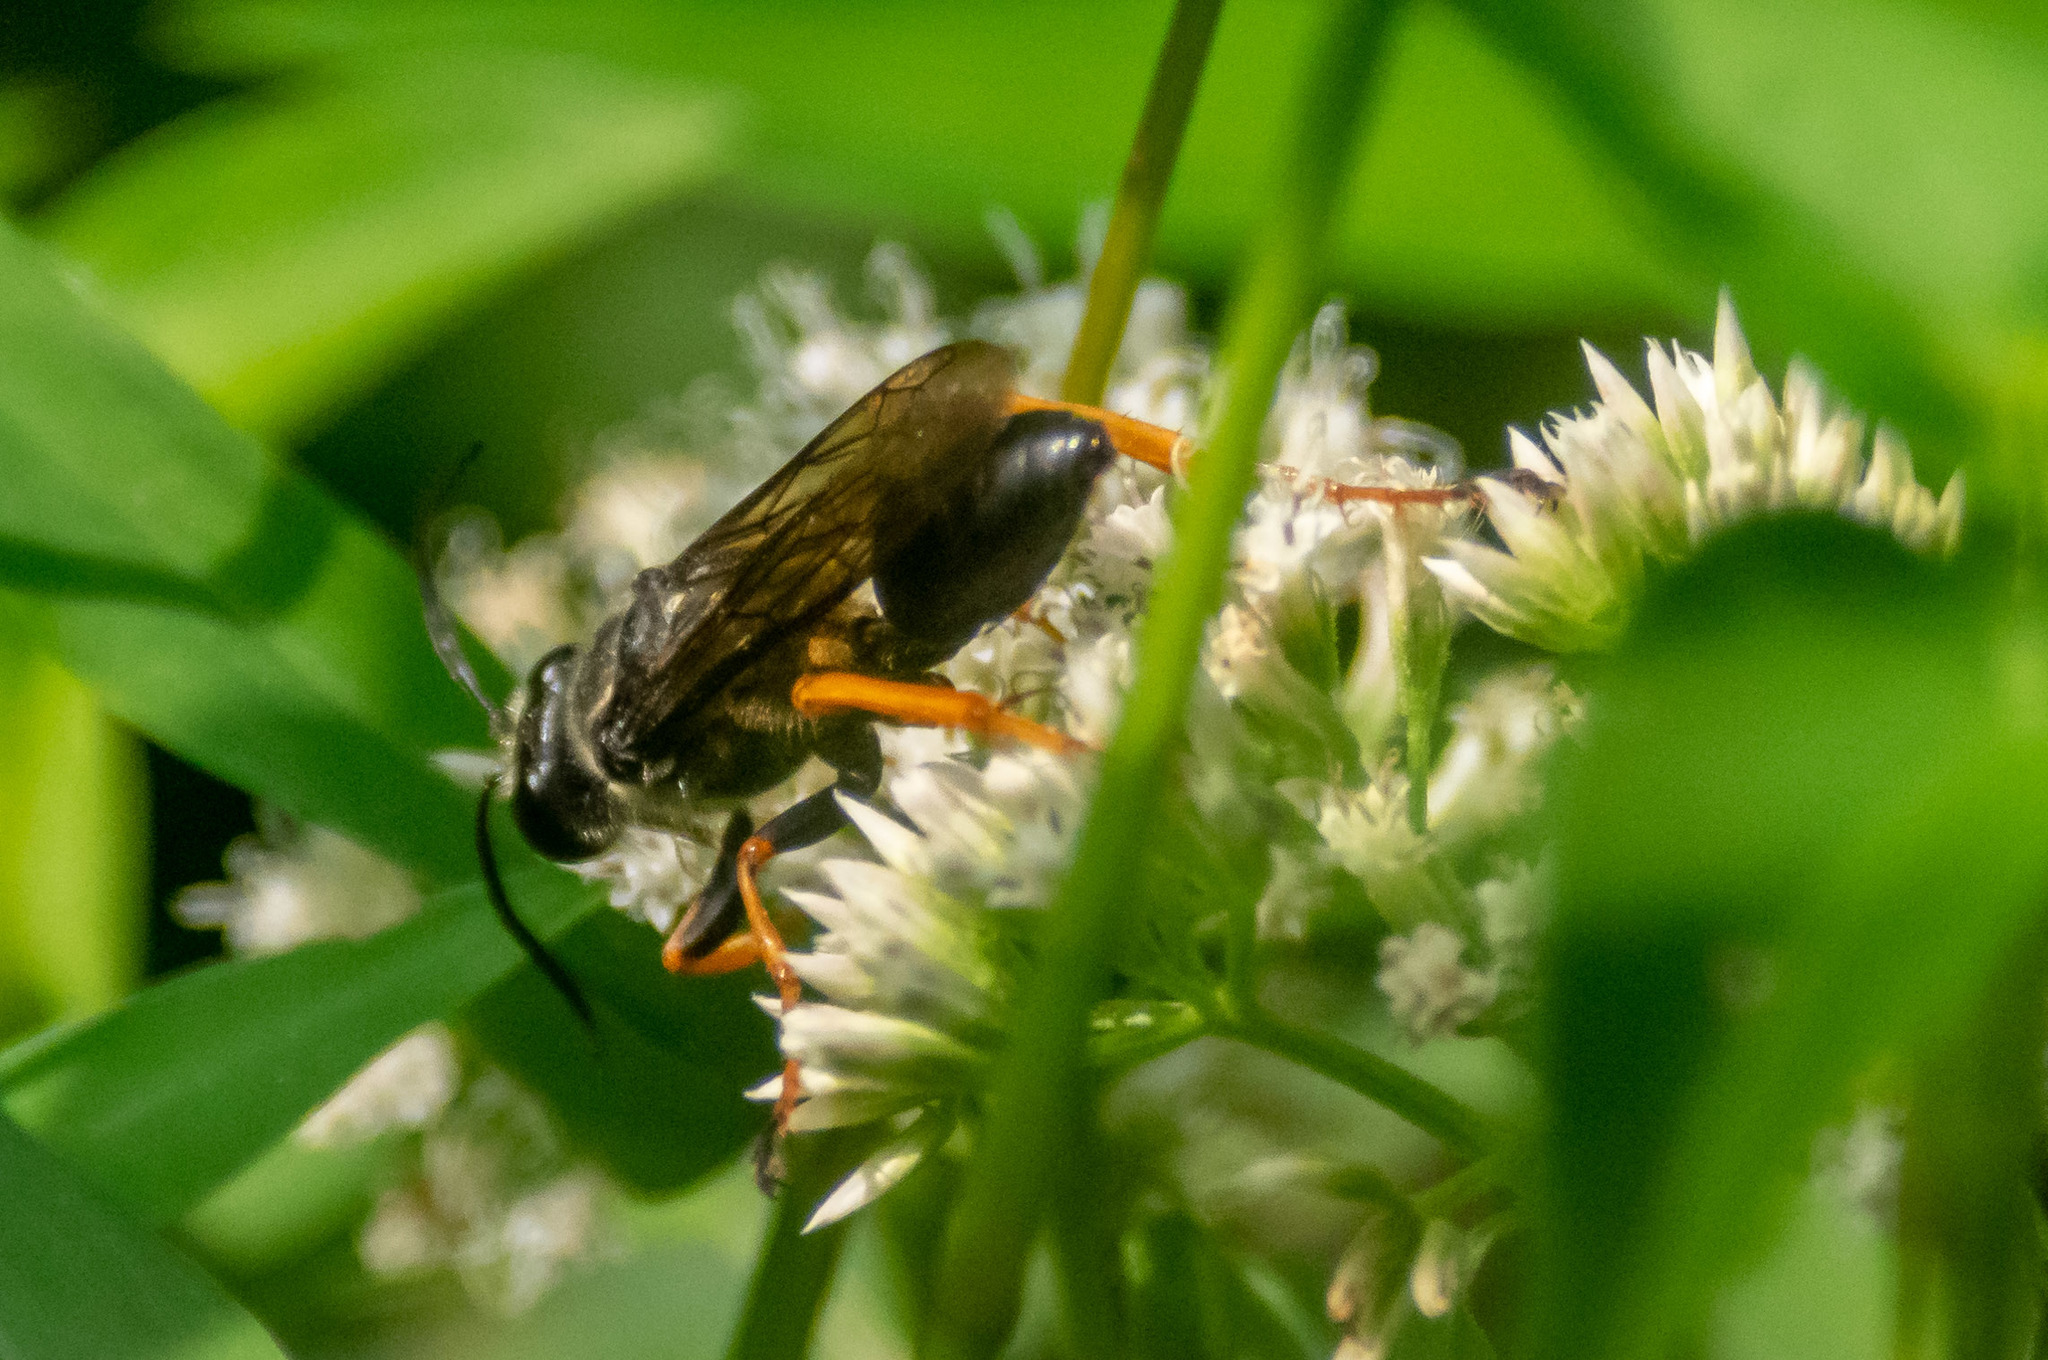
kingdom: Animalia
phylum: Arthropoda
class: Insecta
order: Hymenoptera
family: Sphecidae
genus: Sphex
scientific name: Sphex nudus
